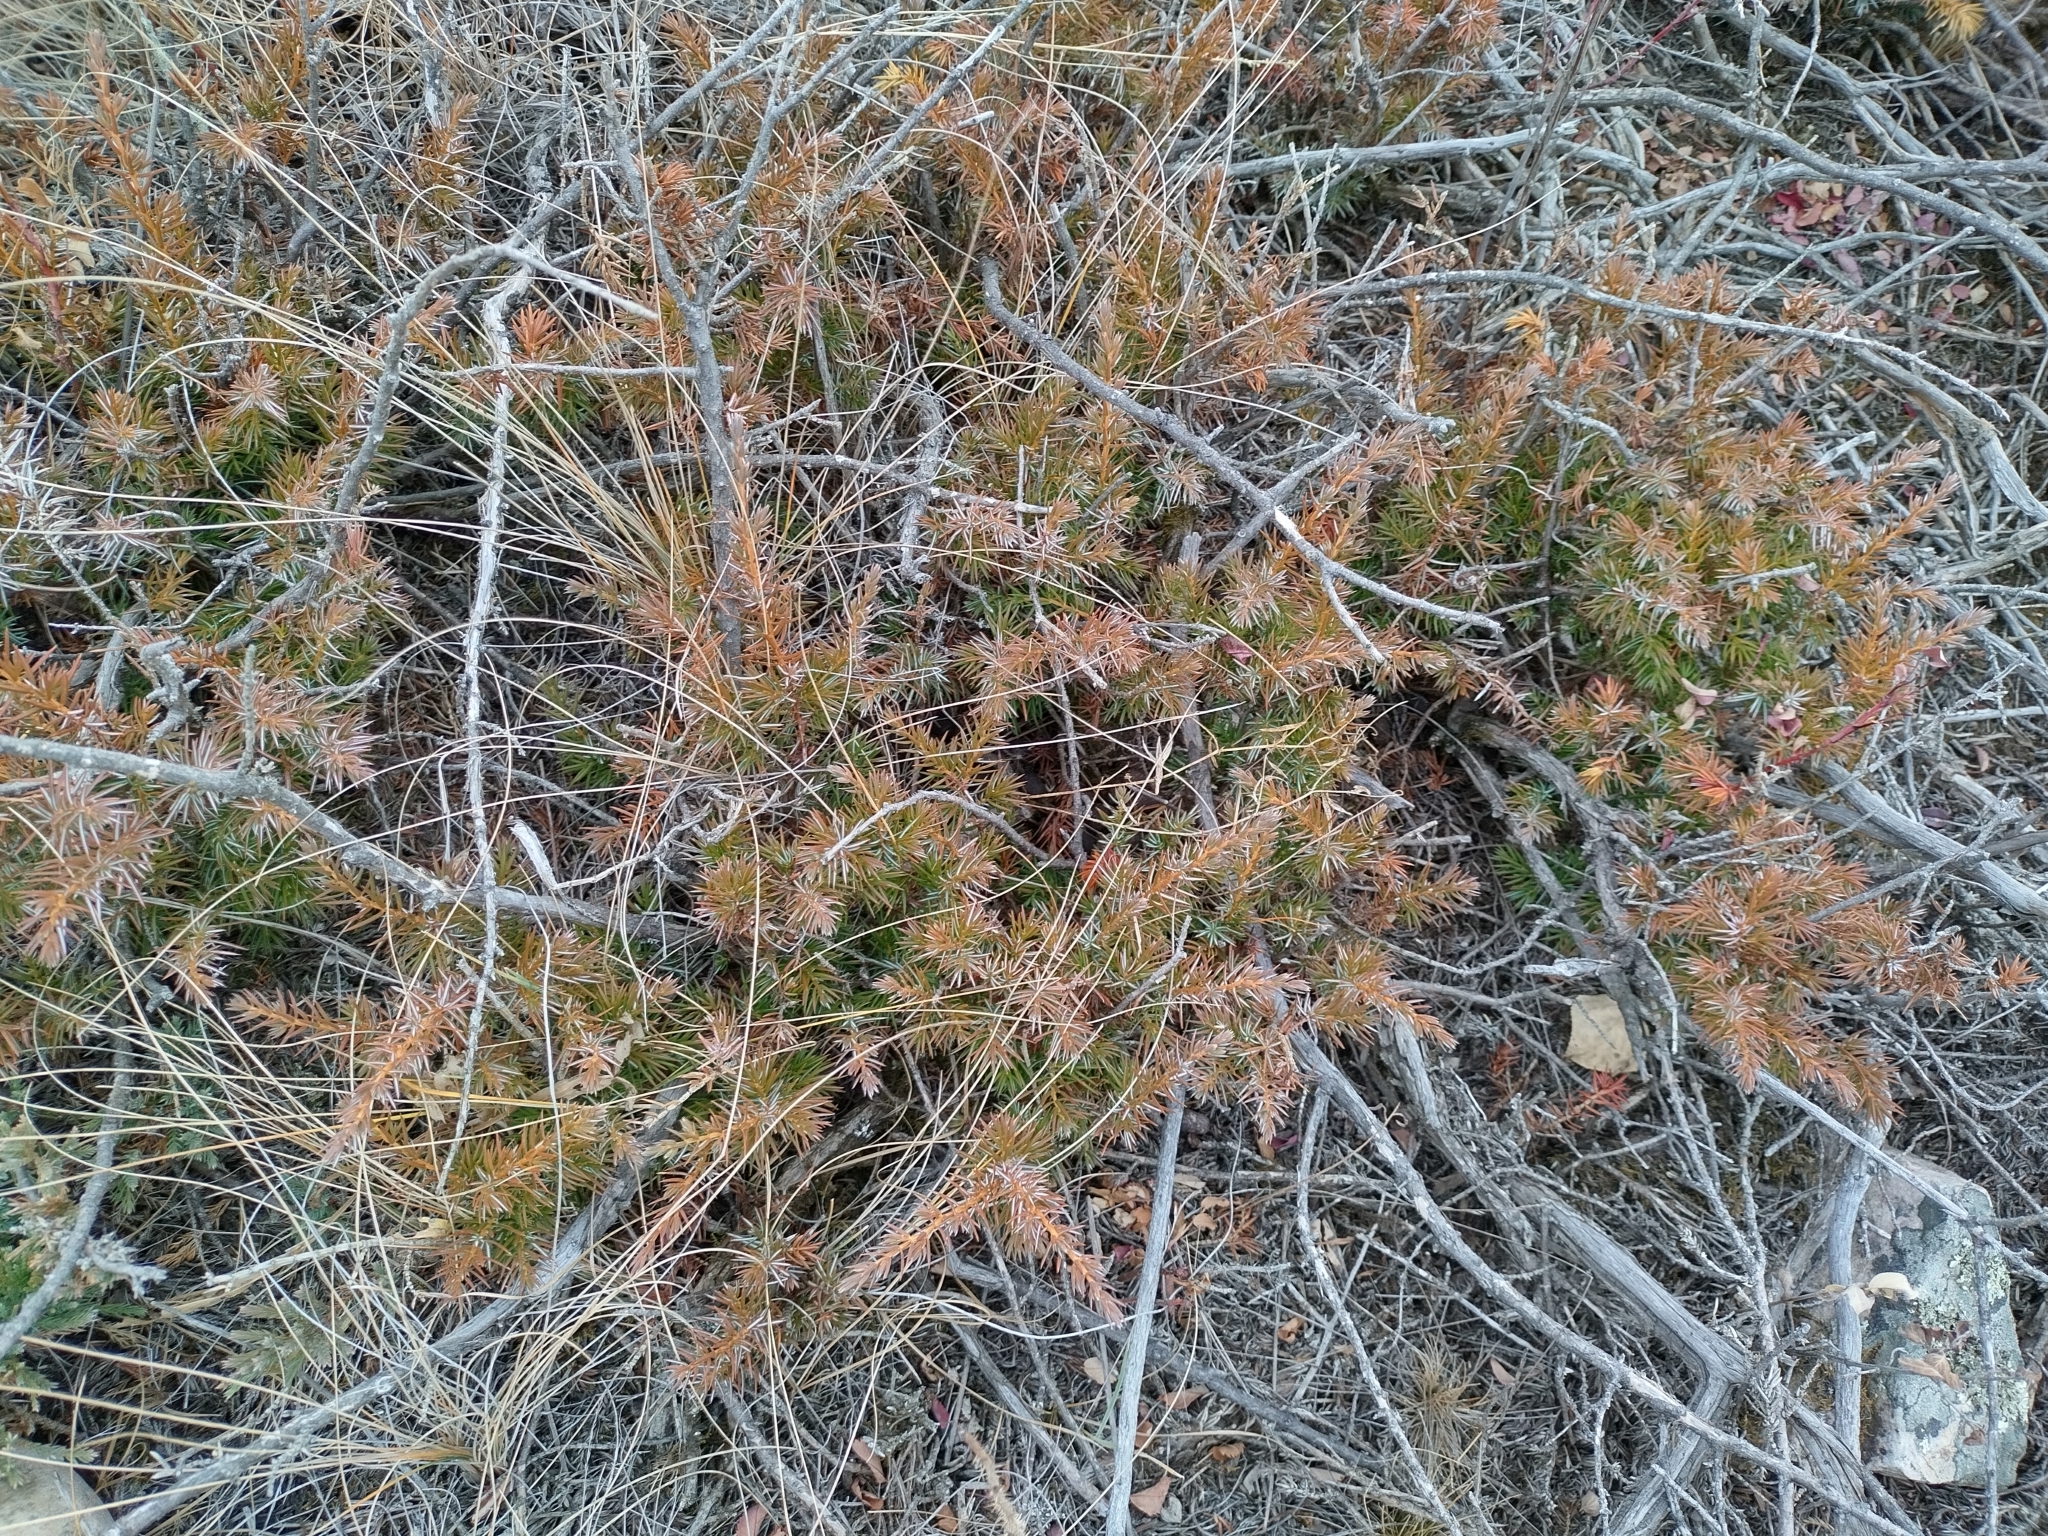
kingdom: Plantae
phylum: Tracheophyta
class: Pinopsida
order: Pinales
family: Cupressaceae
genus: Juniperus
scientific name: Juniperus communis
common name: Common juniper
